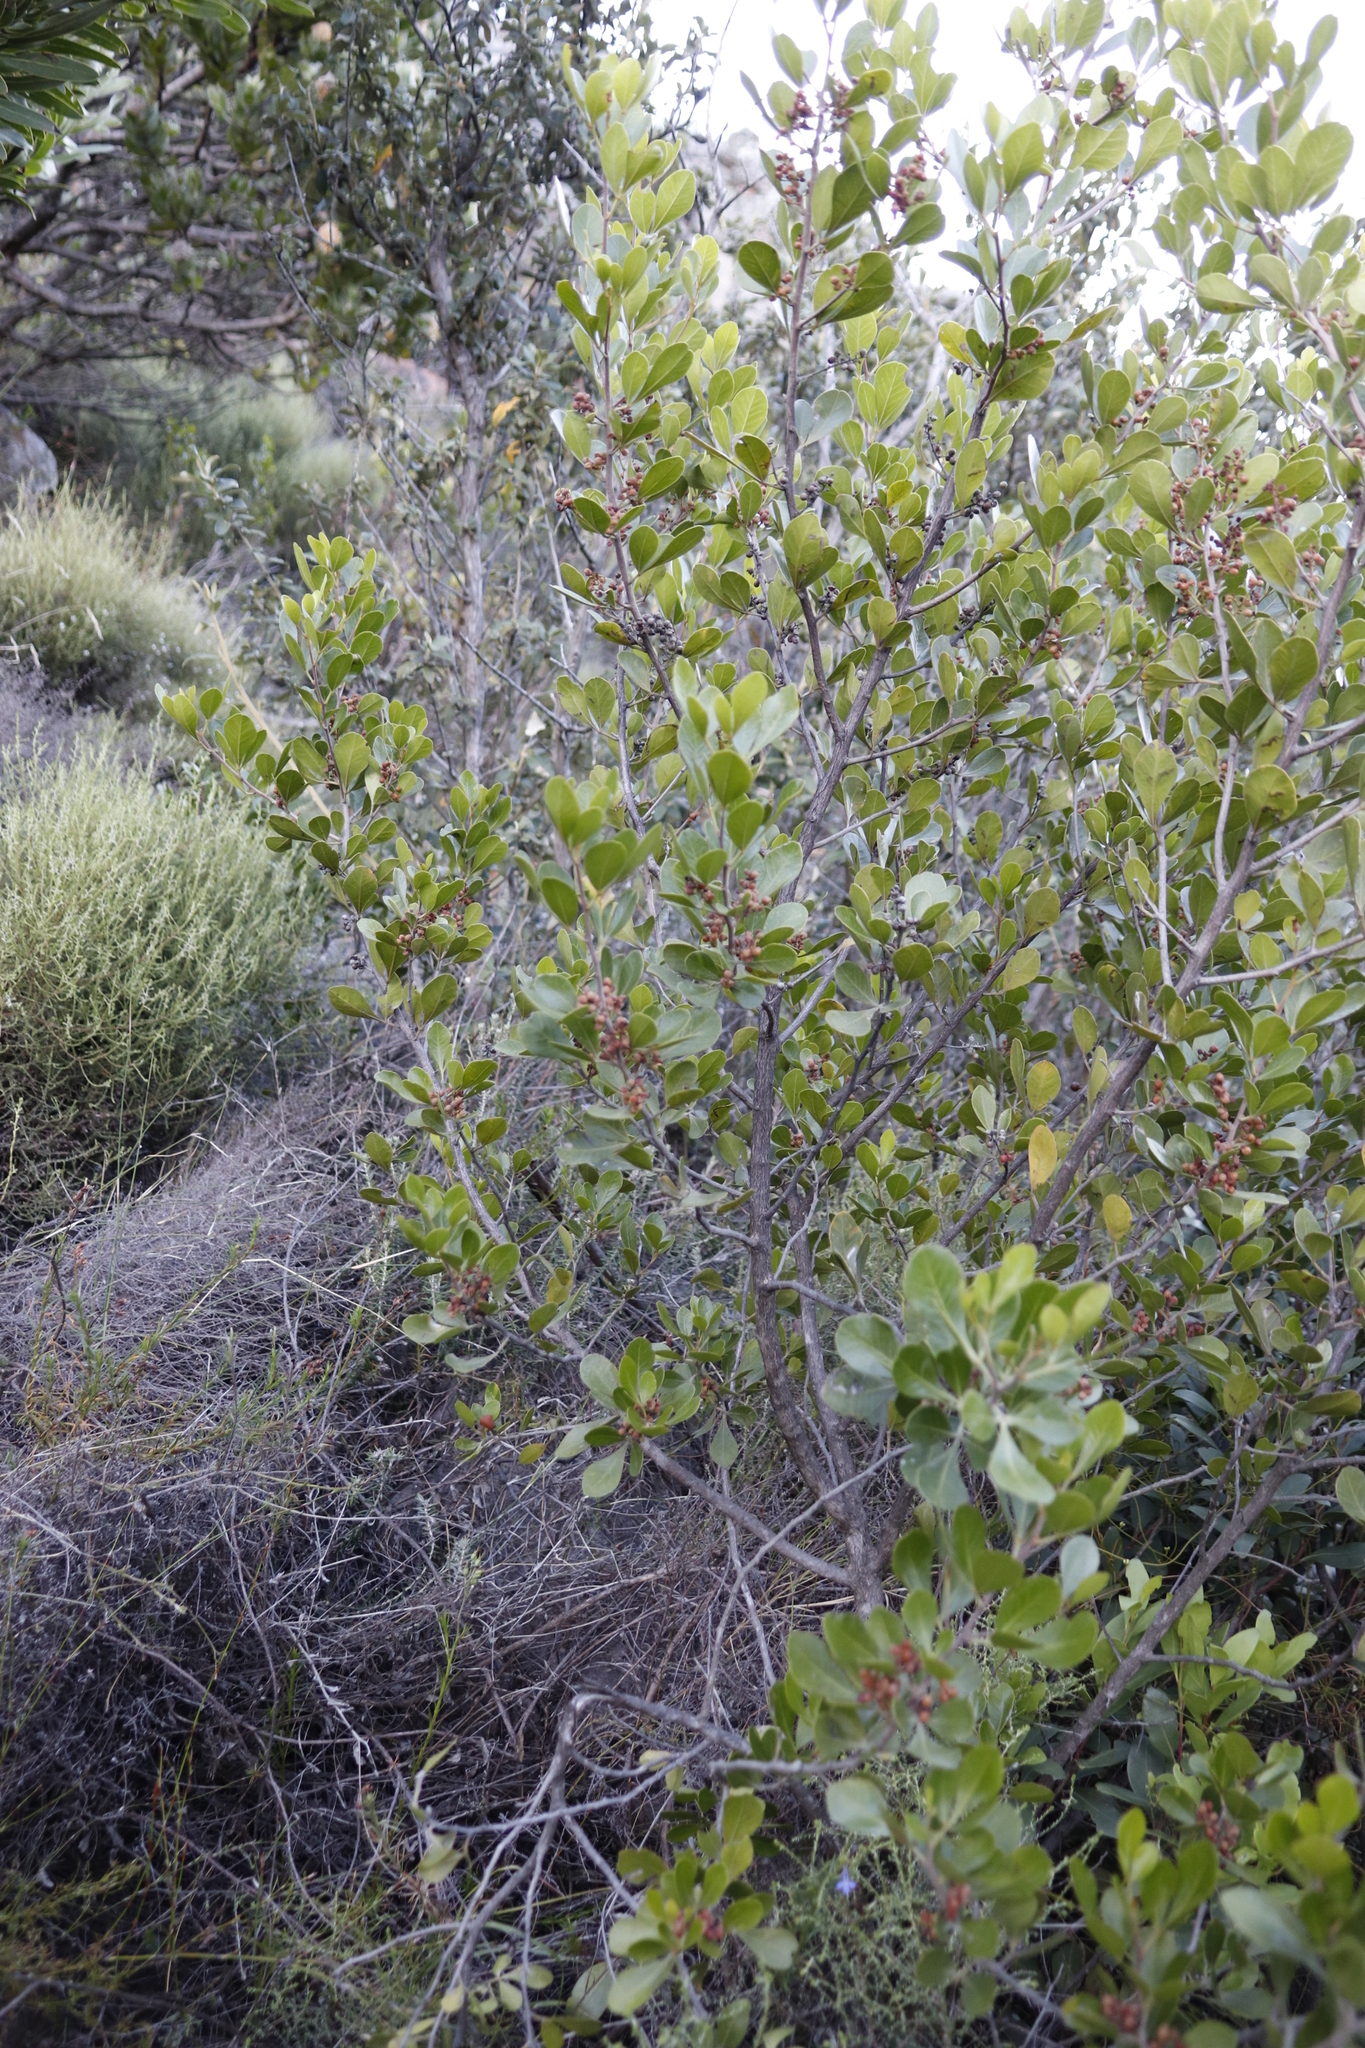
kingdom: Plantae
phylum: Tracheophyta
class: Magnoliopsida
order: Sapindales
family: Anacardiaceae
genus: Searsia
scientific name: Searsia lucida
